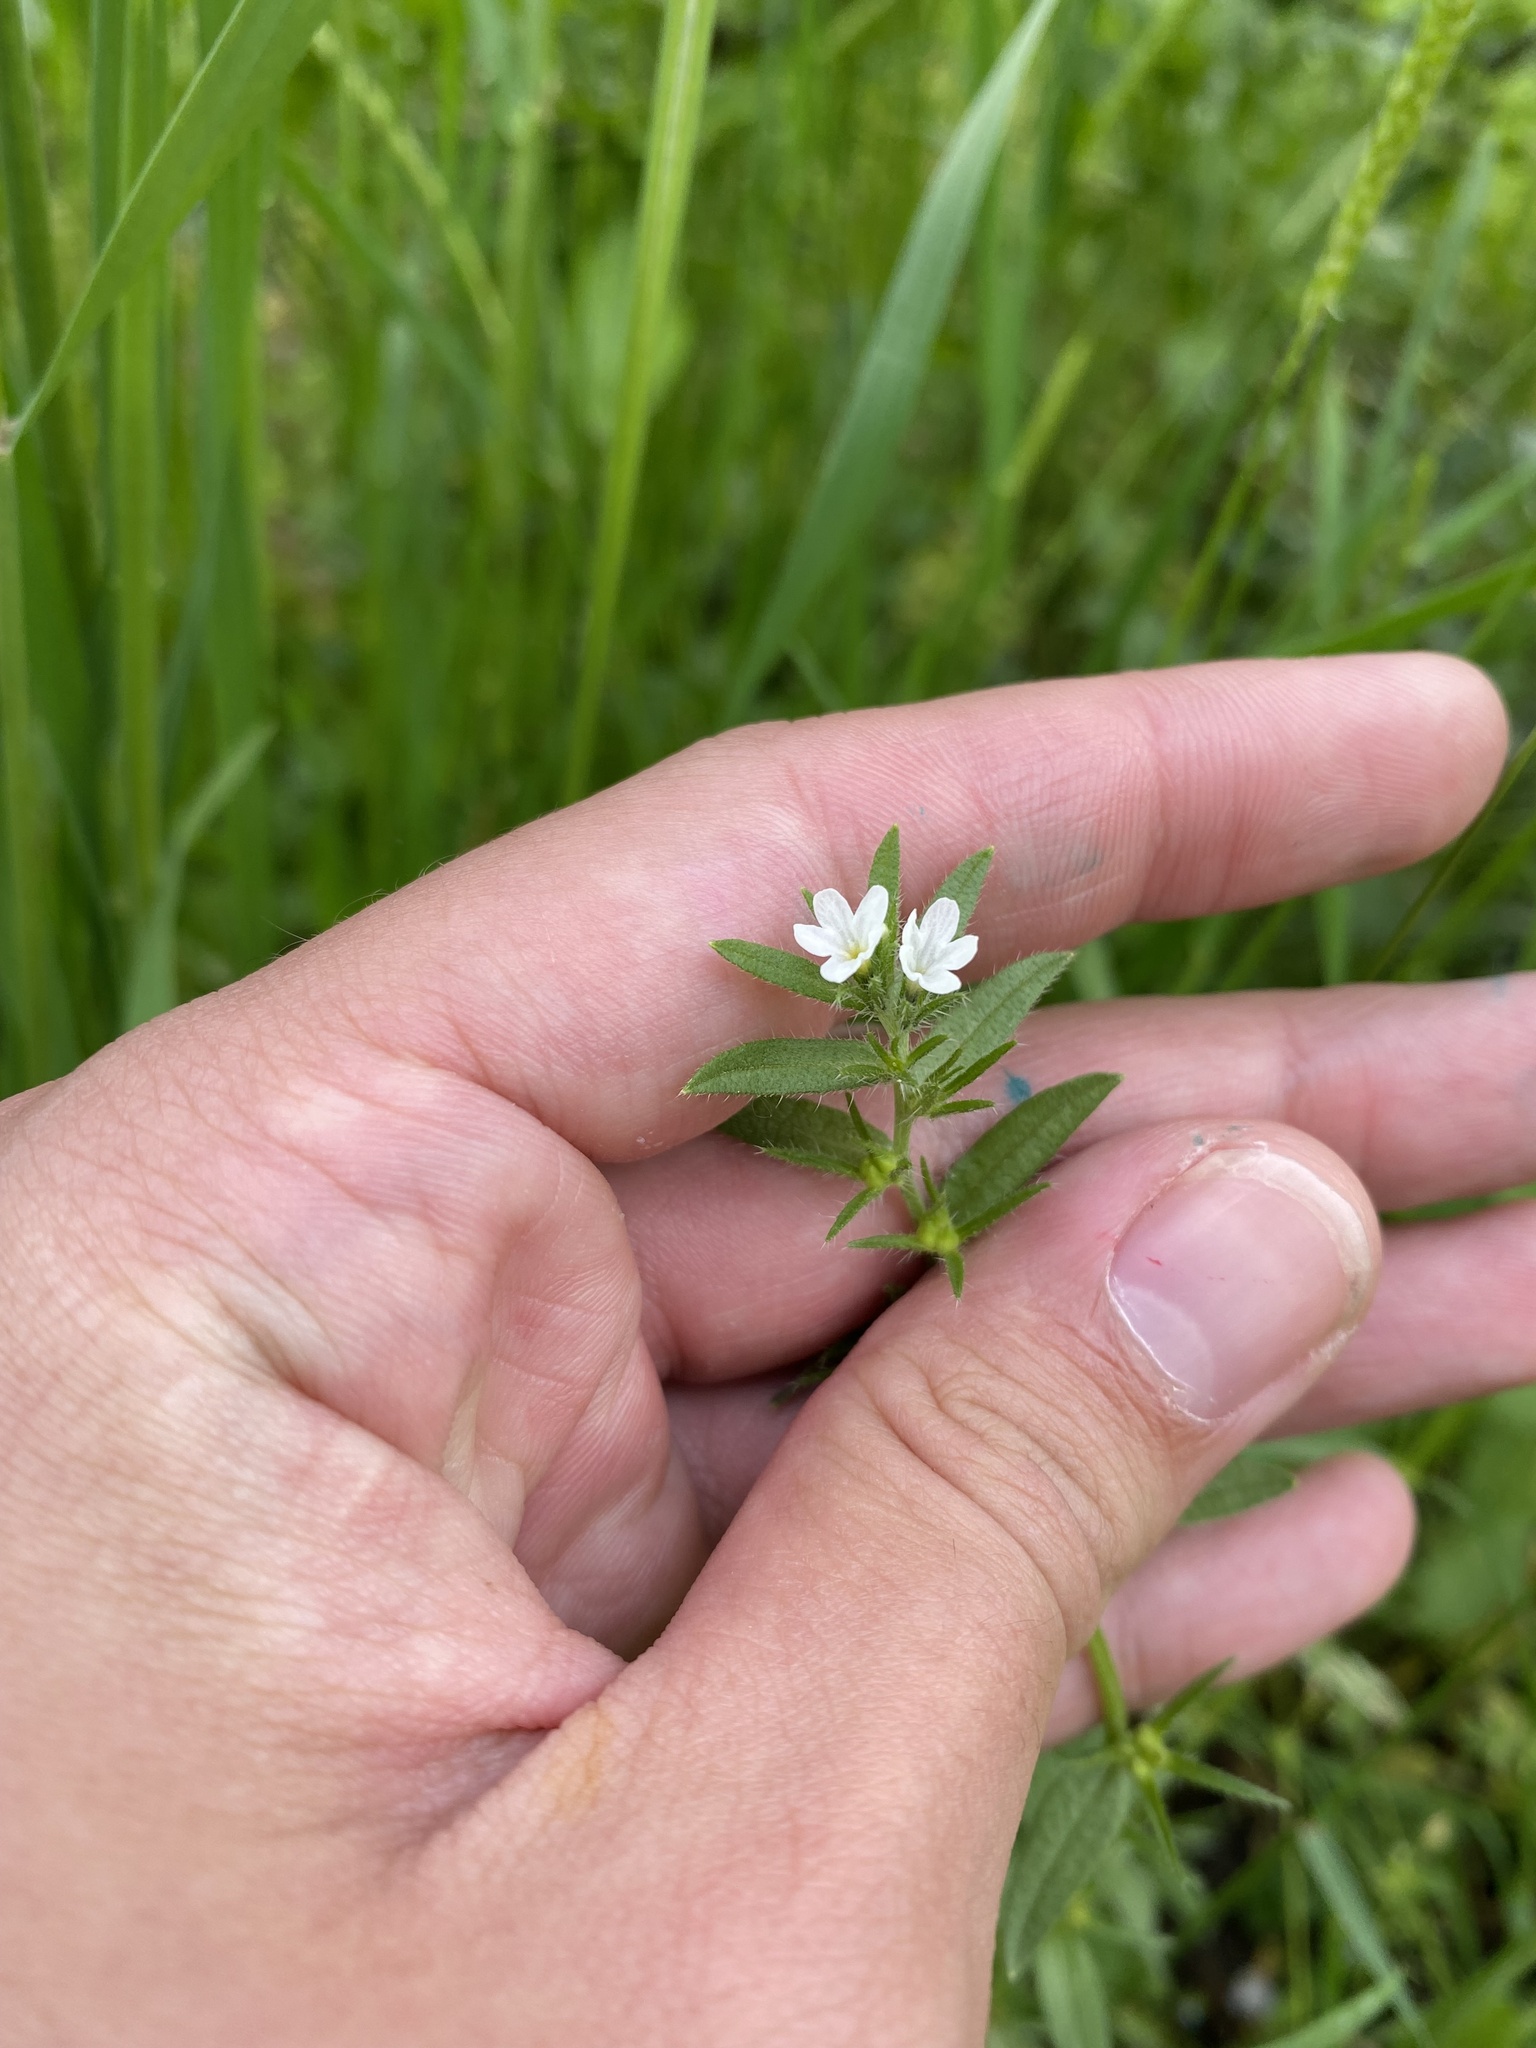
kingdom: Plantae
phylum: Tracheophyta
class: Magnoliopsida
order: Boraginales
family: Boraginaceae
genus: Buglossoides
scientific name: Buglossoides arvensis
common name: Corn gromwell
